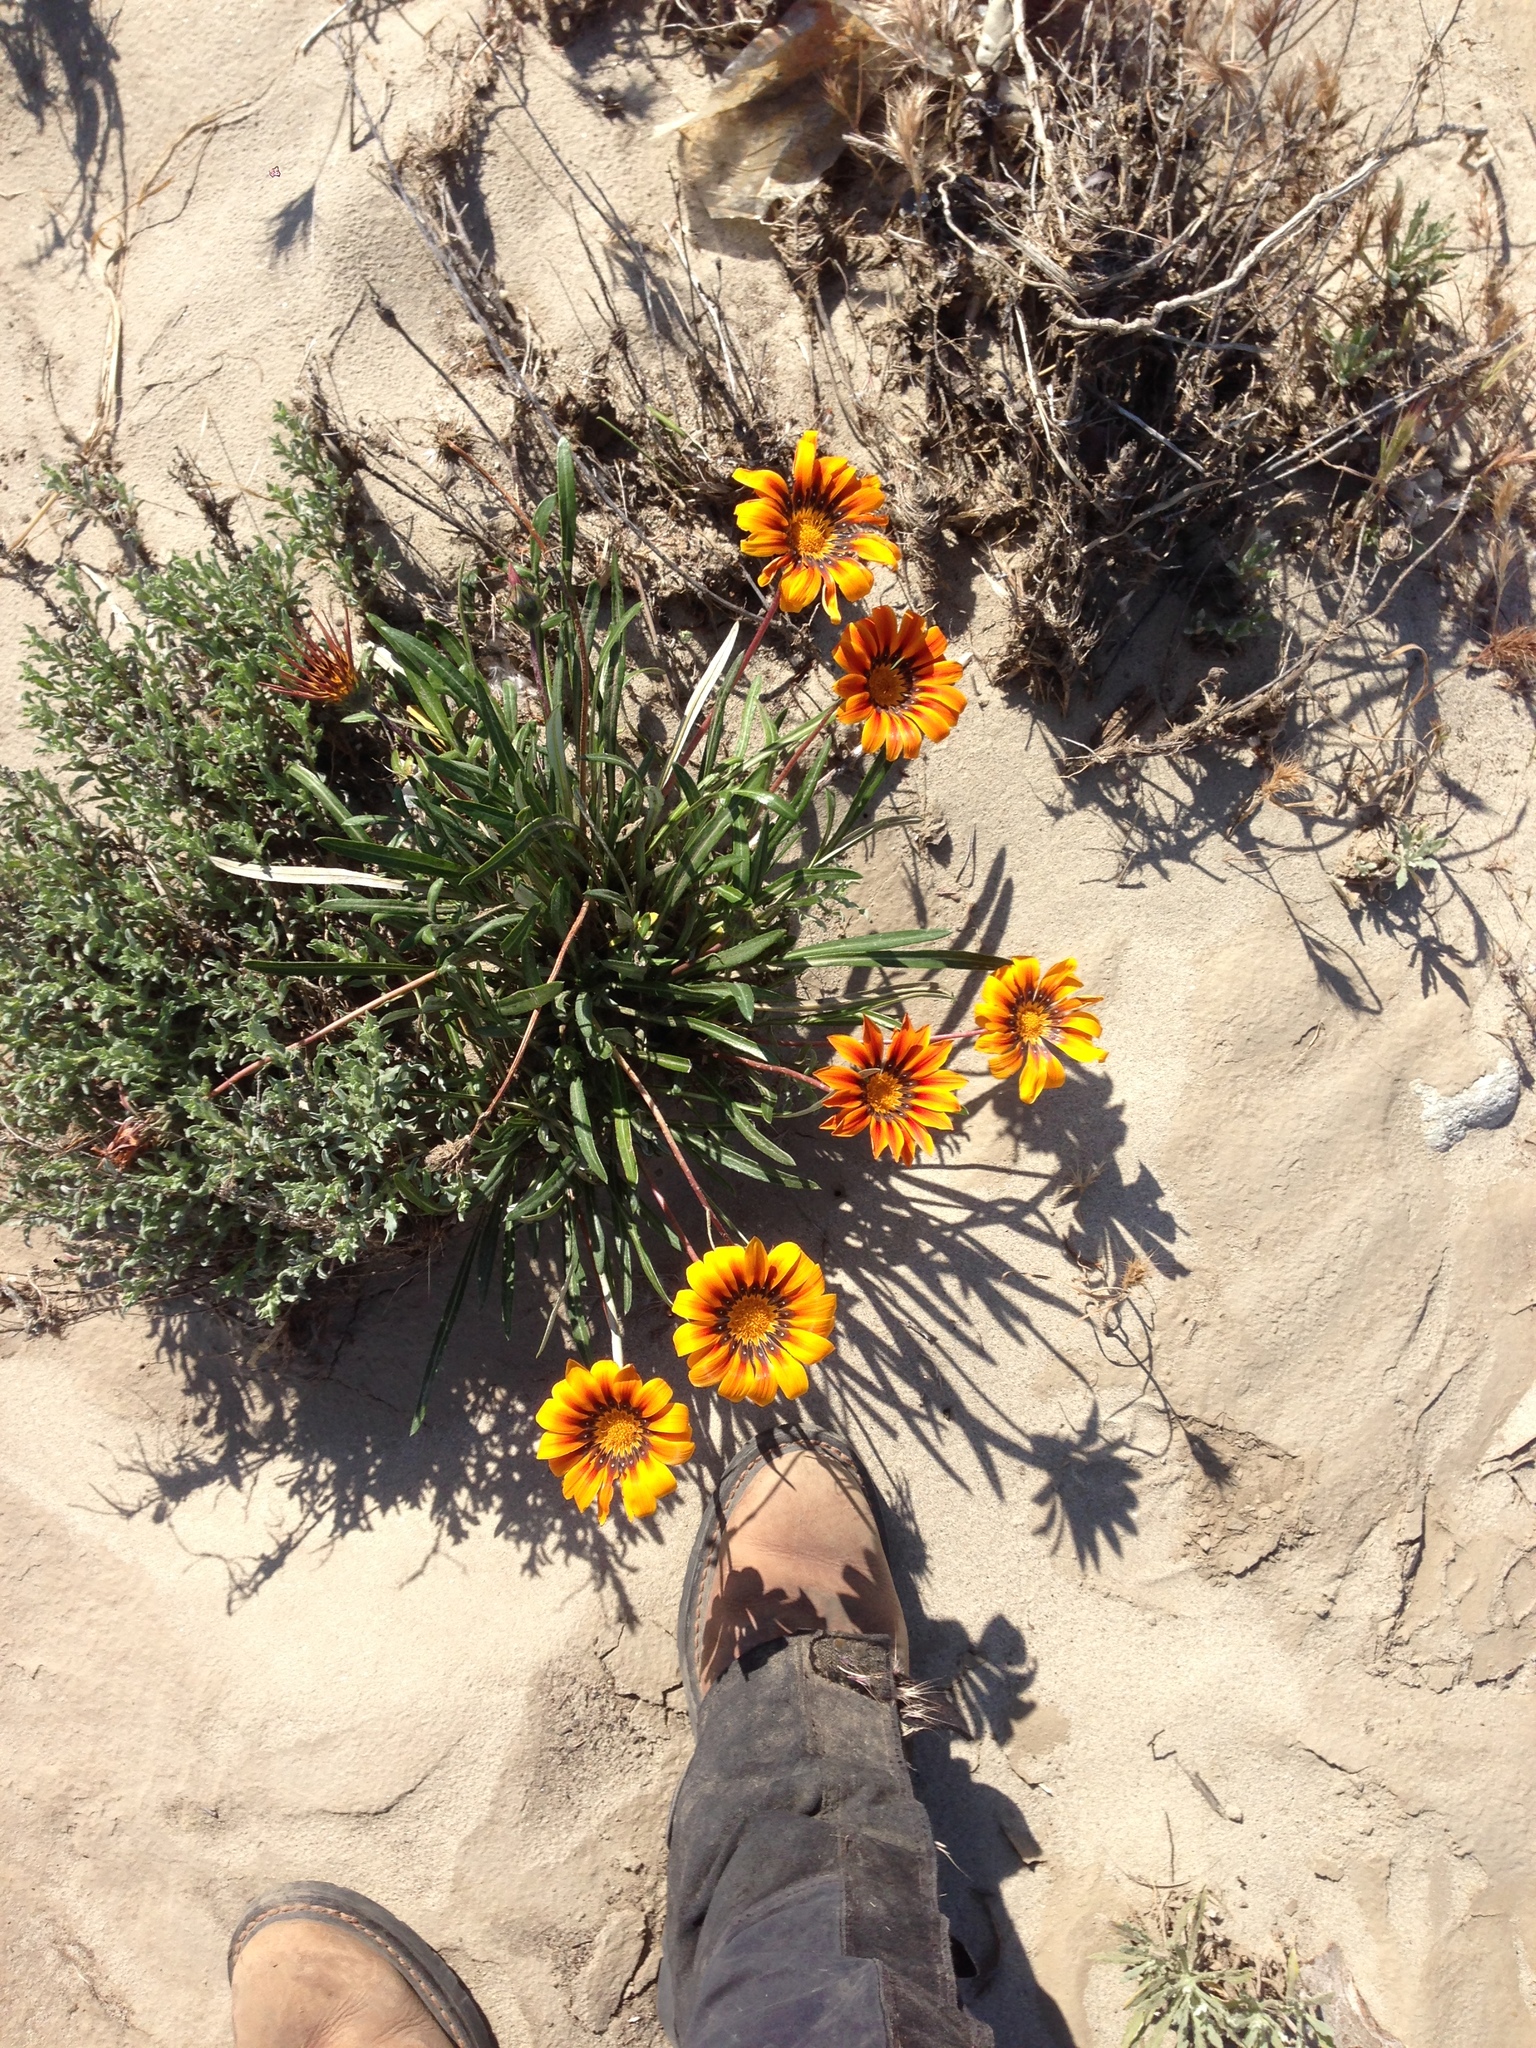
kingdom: Plantae
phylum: Tracheophyta
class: Magnoliopsida
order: Asterales
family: Asteraceae
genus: Gazania
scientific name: Gazania linearis
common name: Treasureflower
